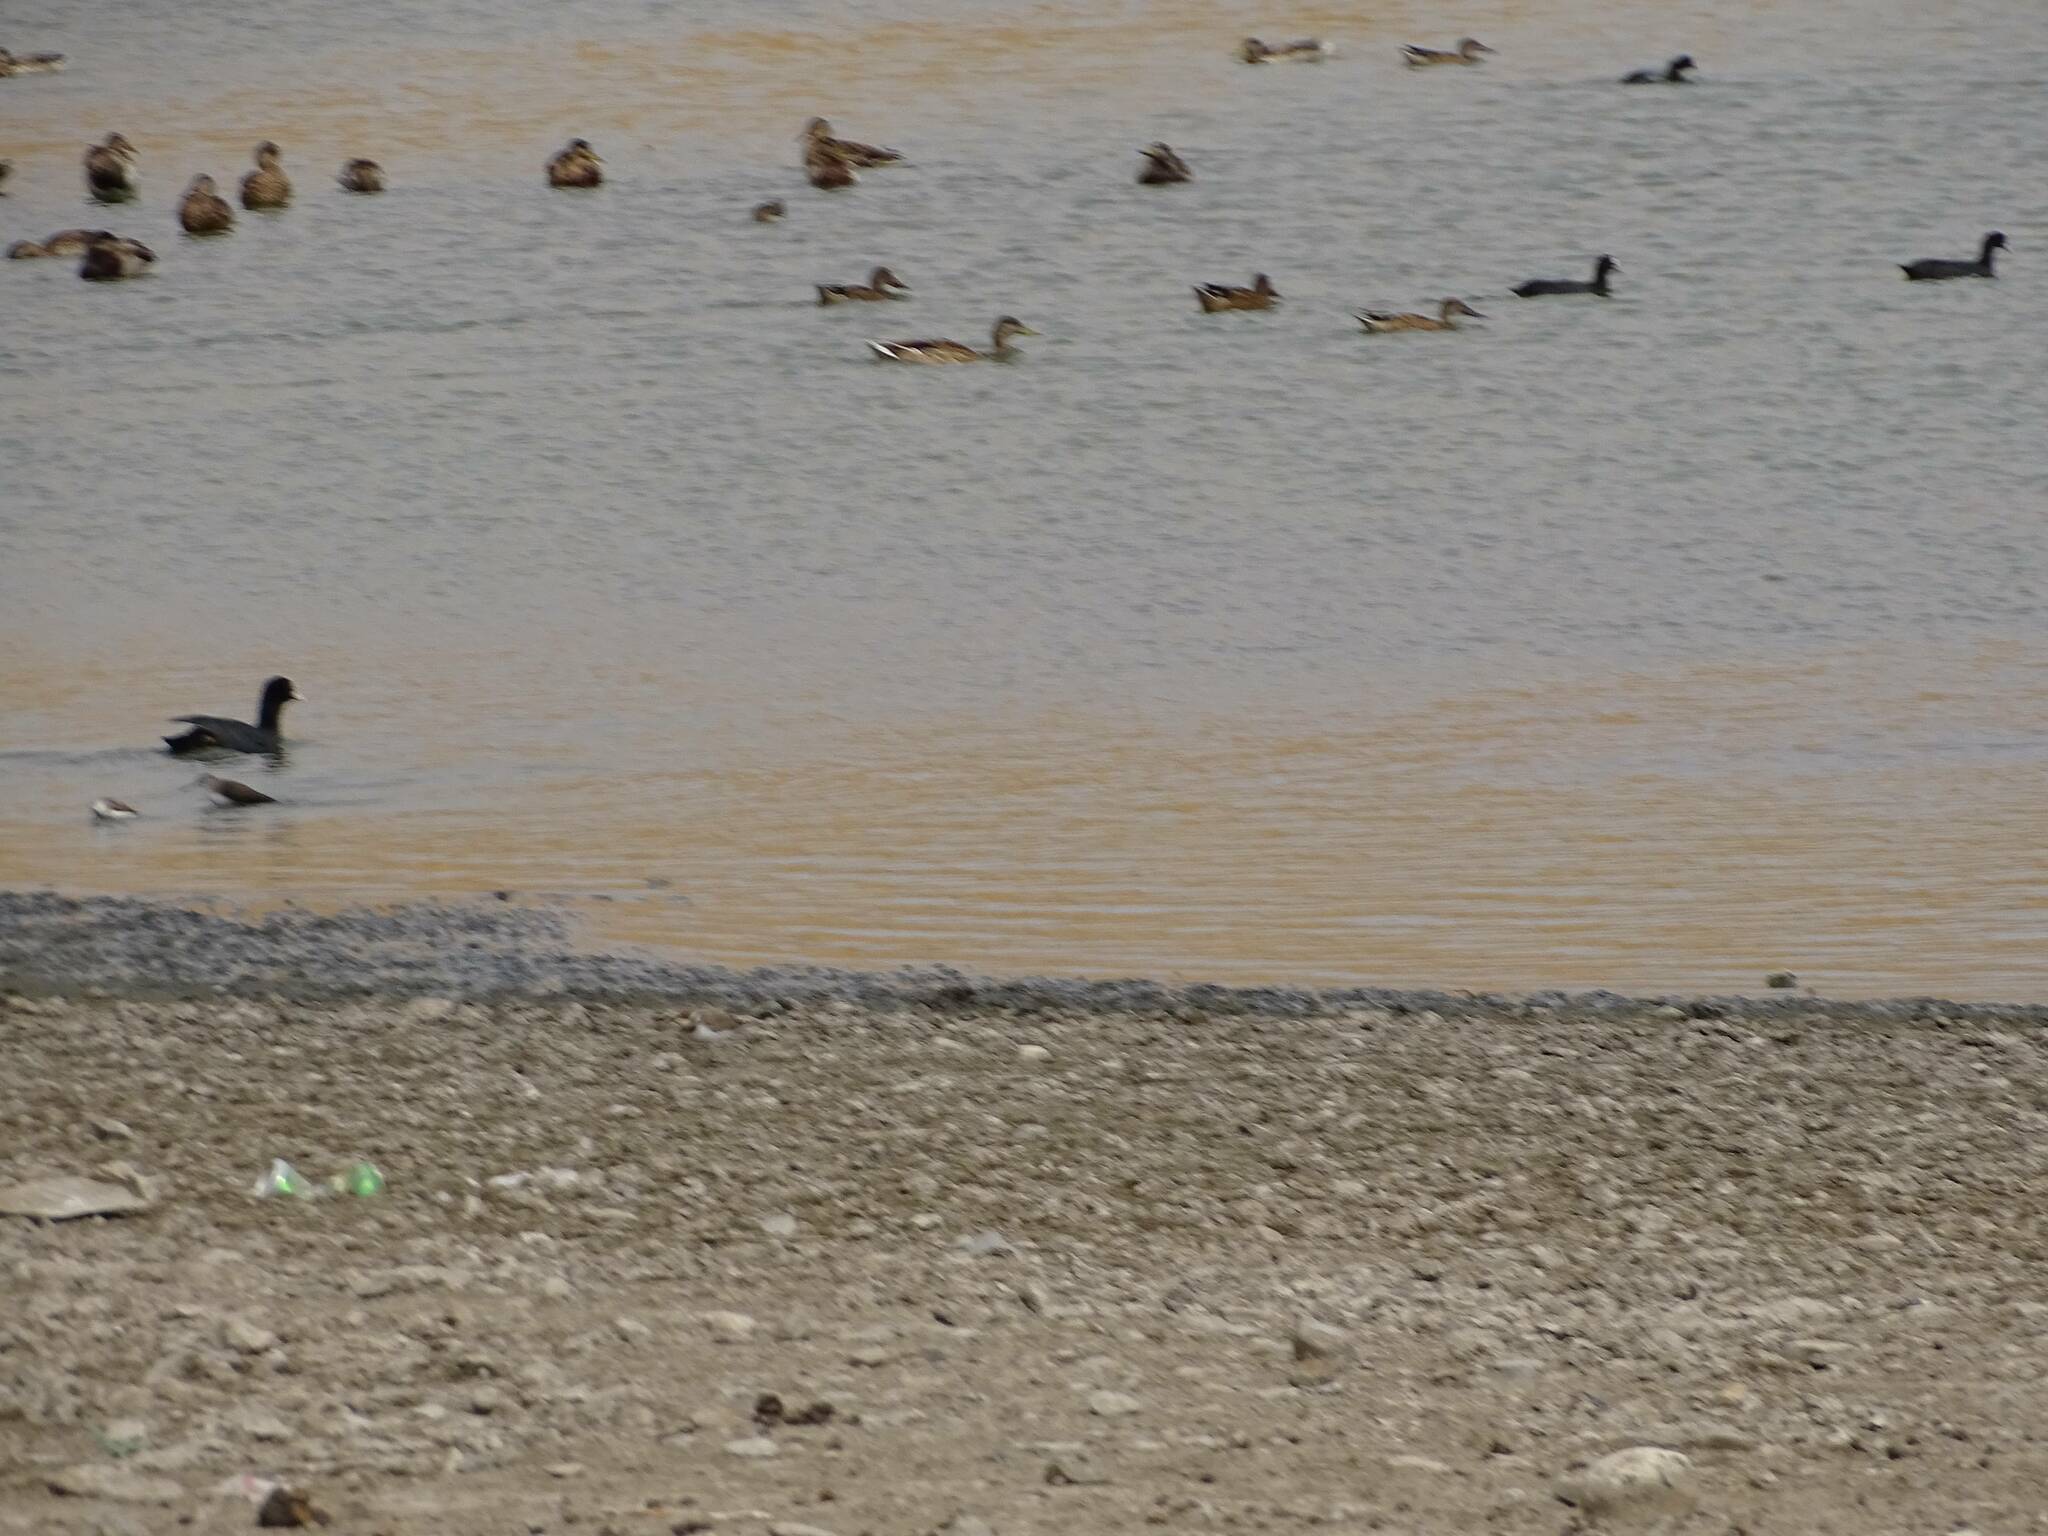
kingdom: Animalia
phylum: Chordata
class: Aves
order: Anseriformes
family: Anatidae
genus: Anas
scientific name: Anas platyrhynchos
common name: Mallard
